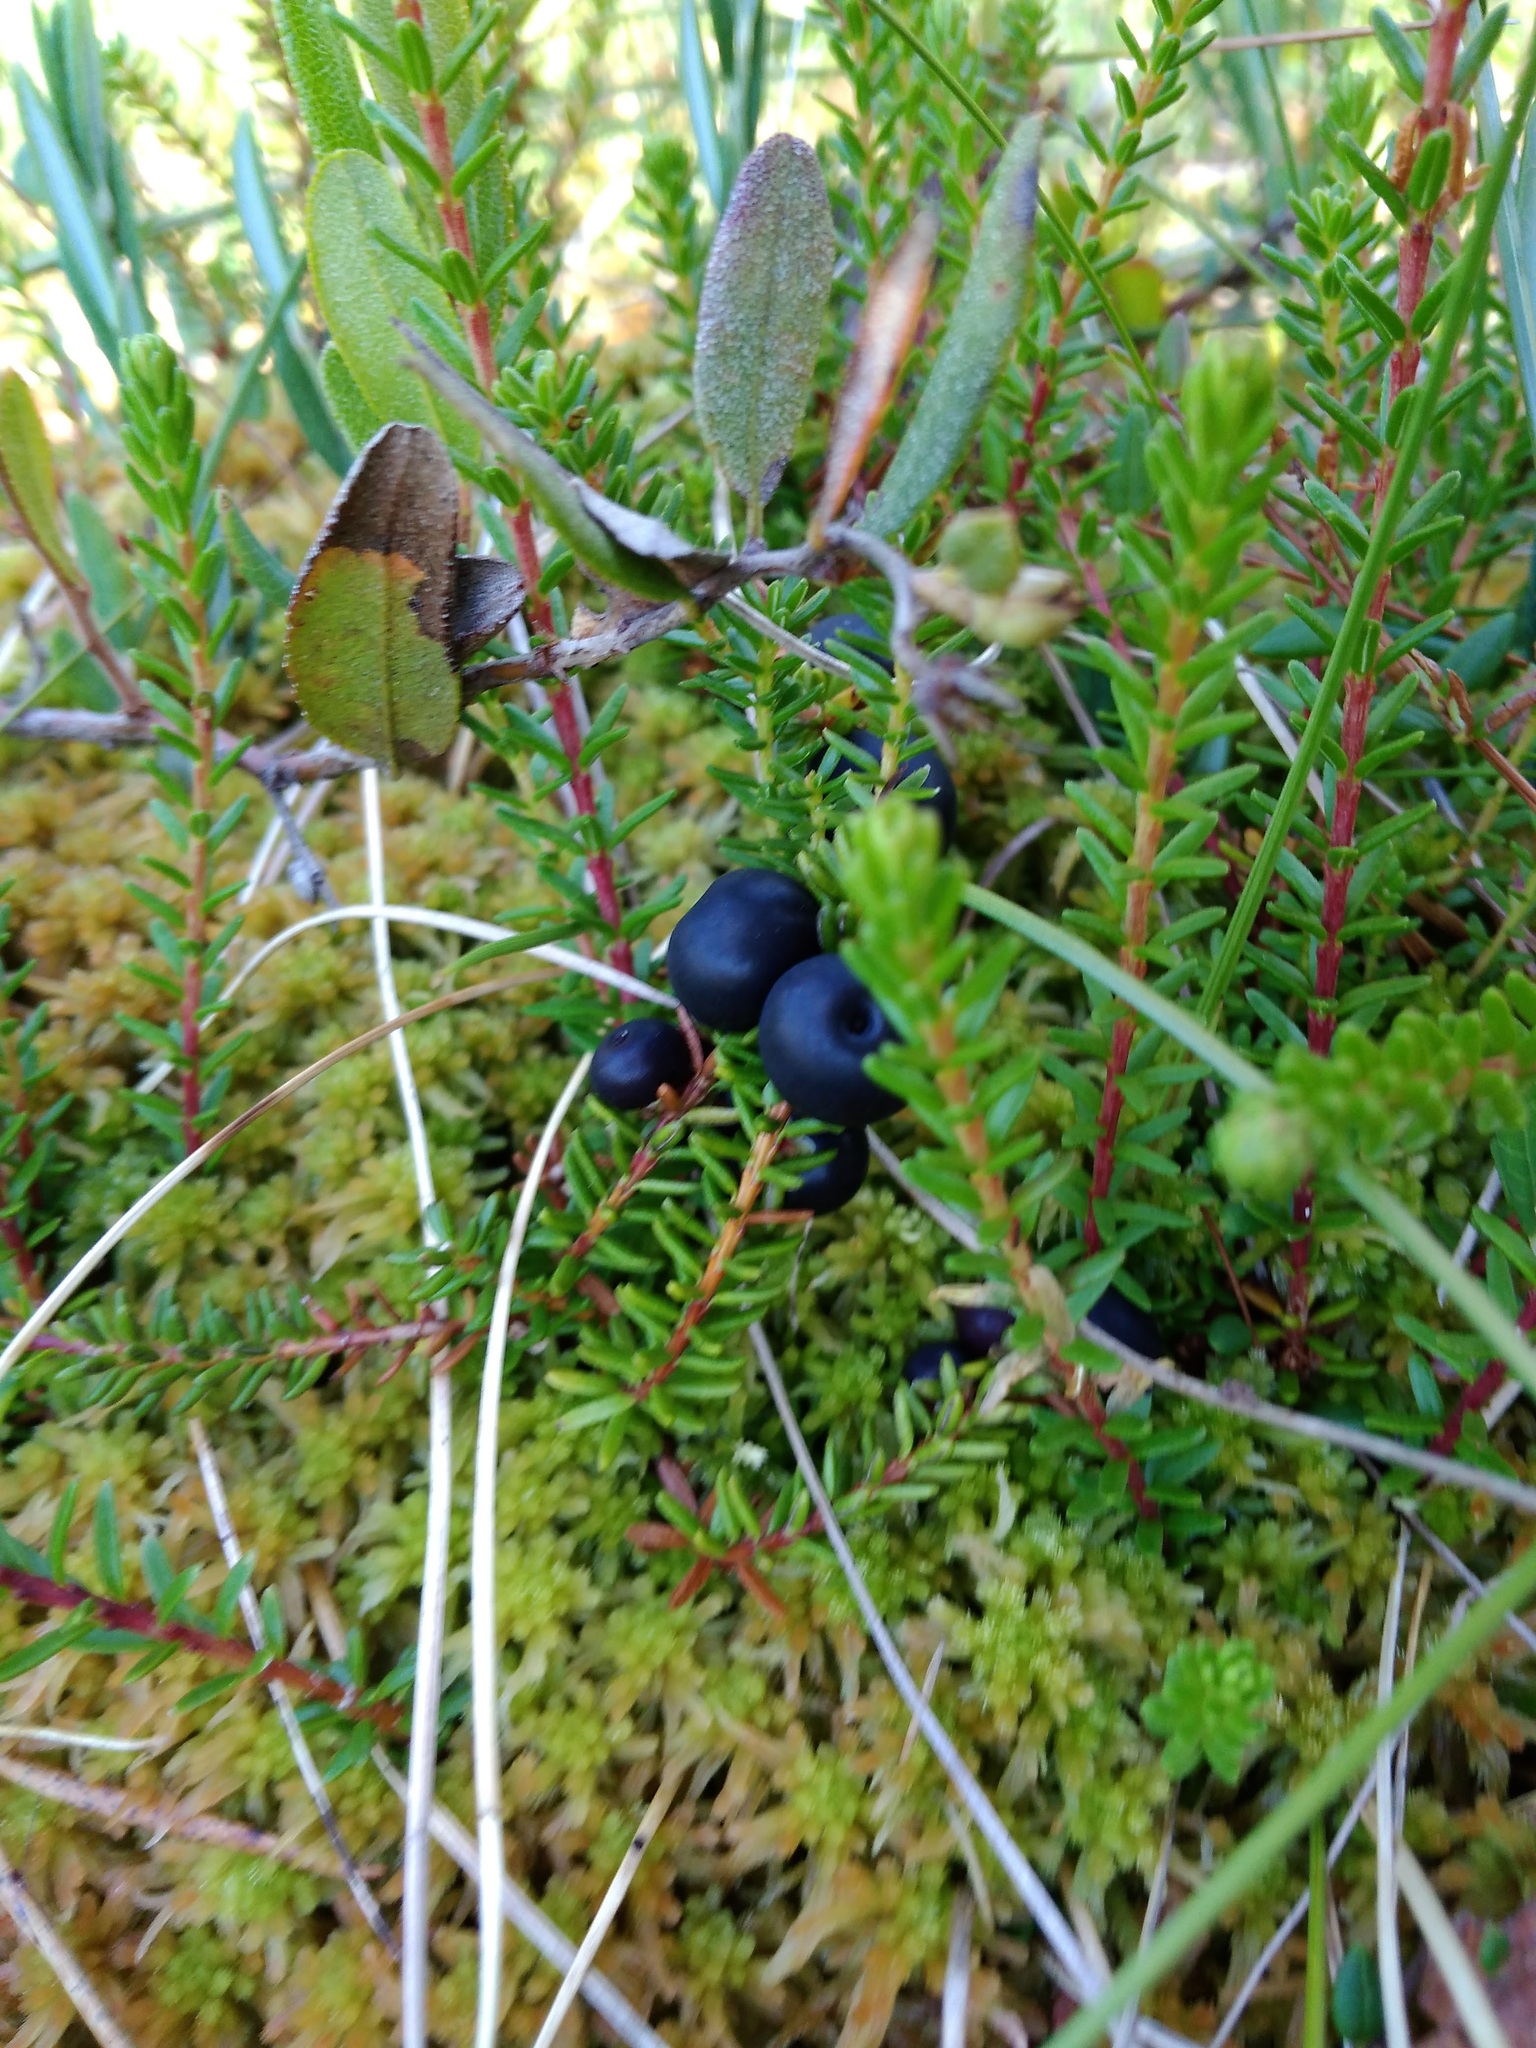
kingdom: Plantae
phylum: Tracheophyta
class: Magnoliopsida
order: Ericales
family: Ericaceae
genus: Empetrum
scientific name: Empetrum nigrum
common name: Black crowberry
